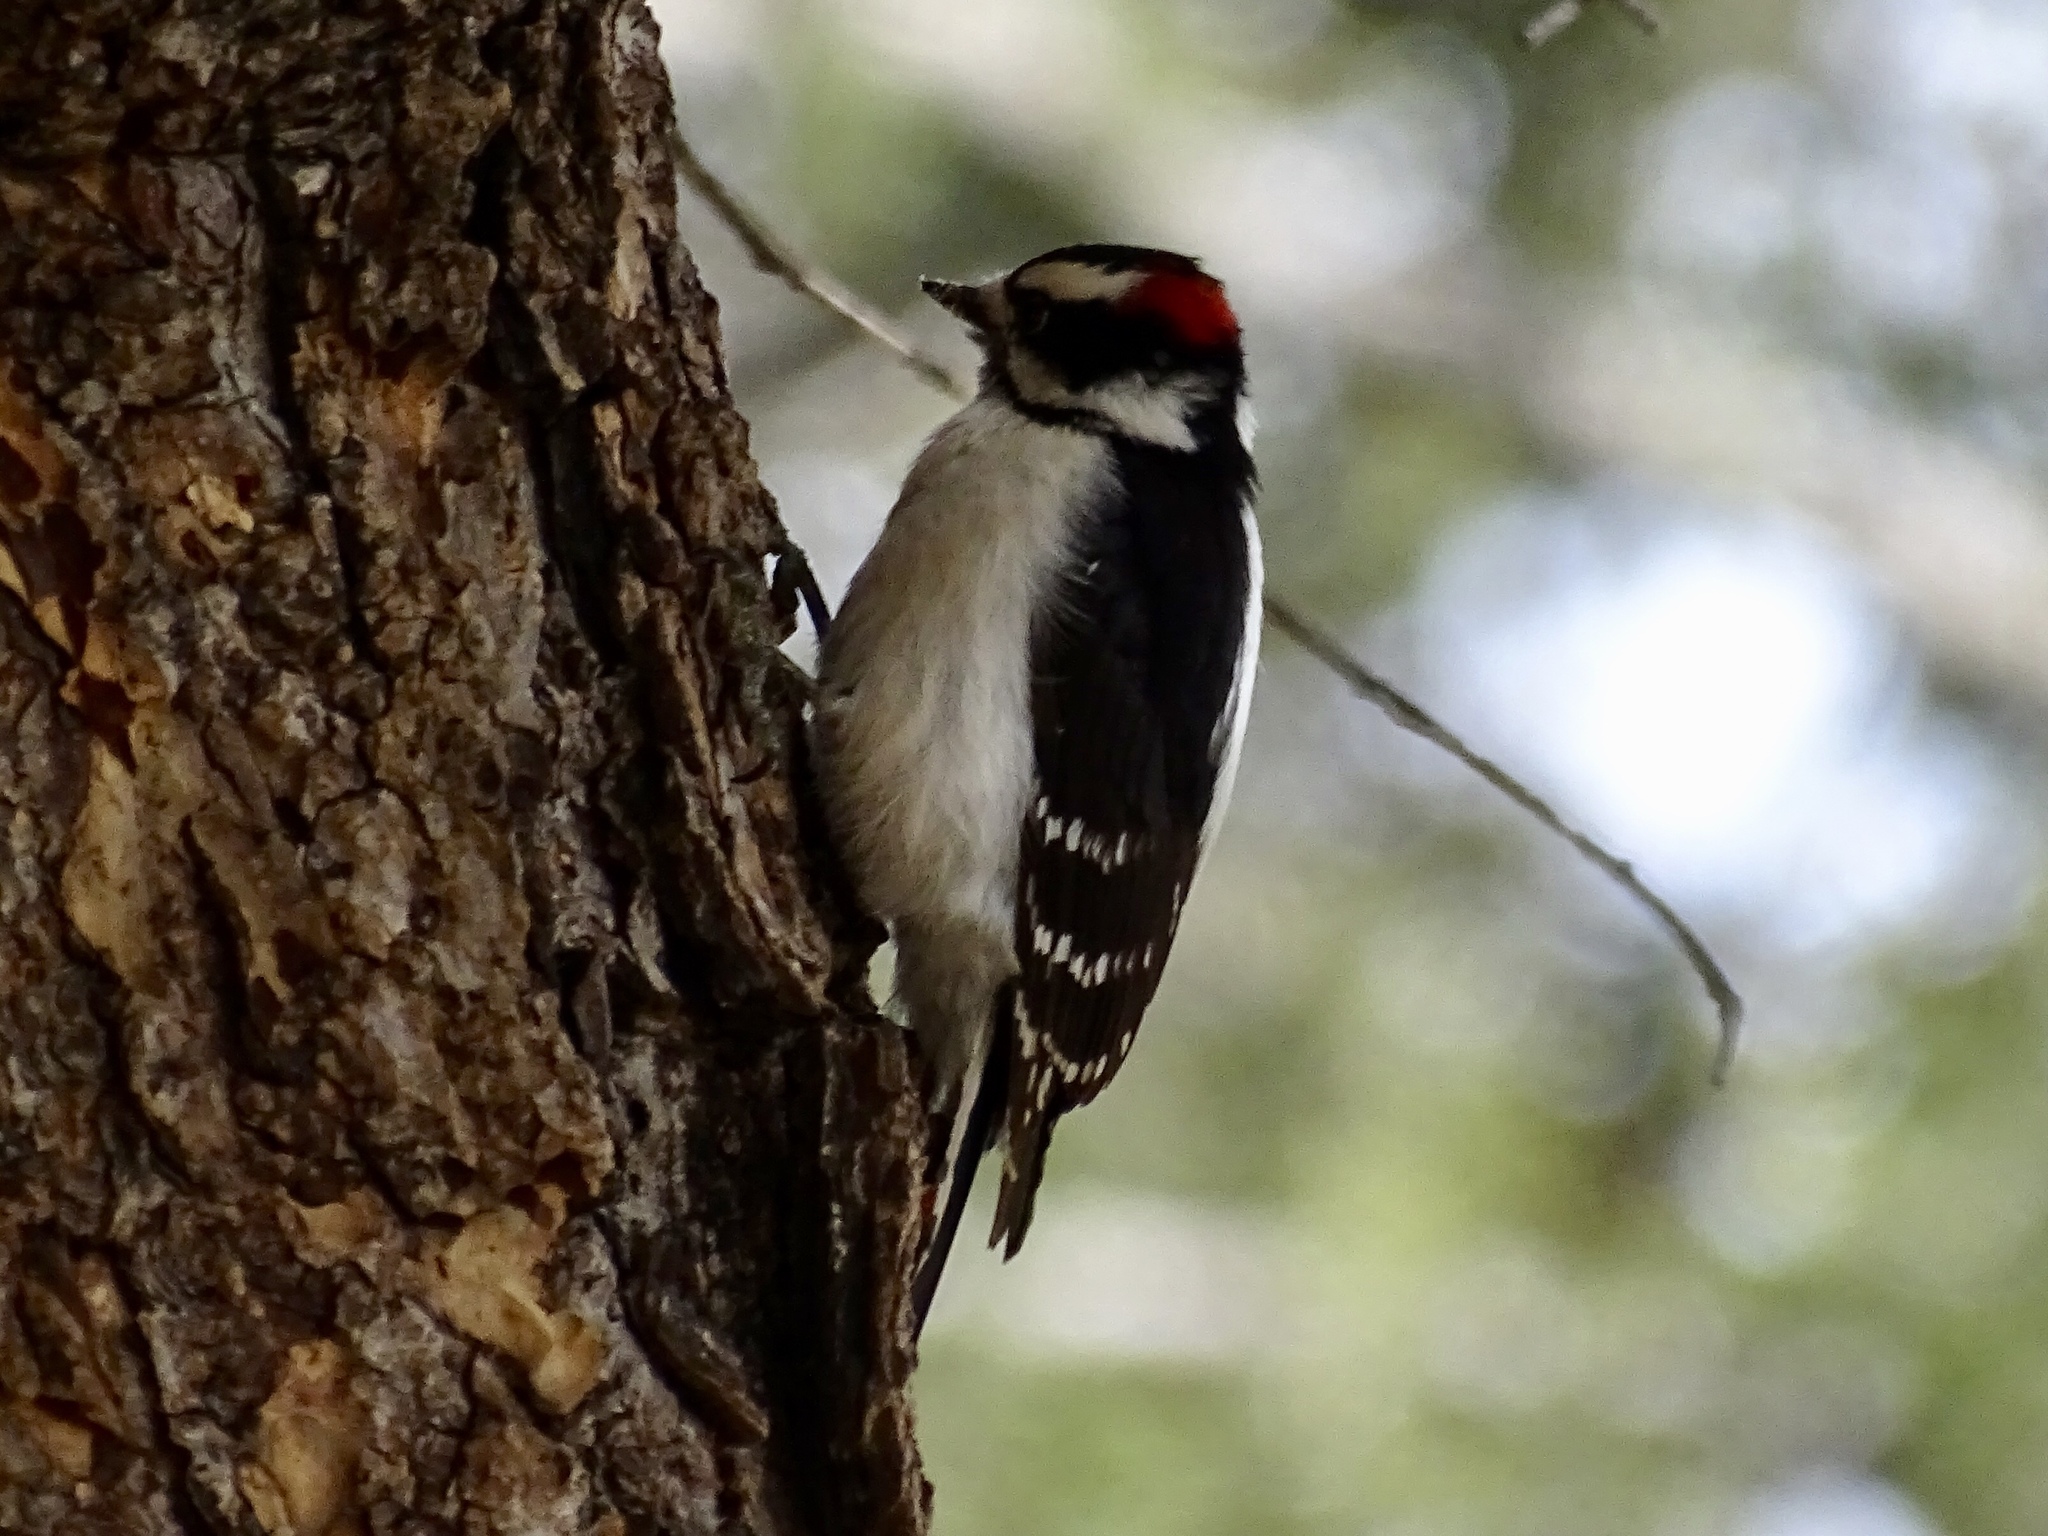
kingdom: Animalia
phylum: Chordata
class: Aves
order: Piciformes
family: Picidae
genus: Dryobates
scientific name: Dryobates pubescens
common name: Downy woodpecker
